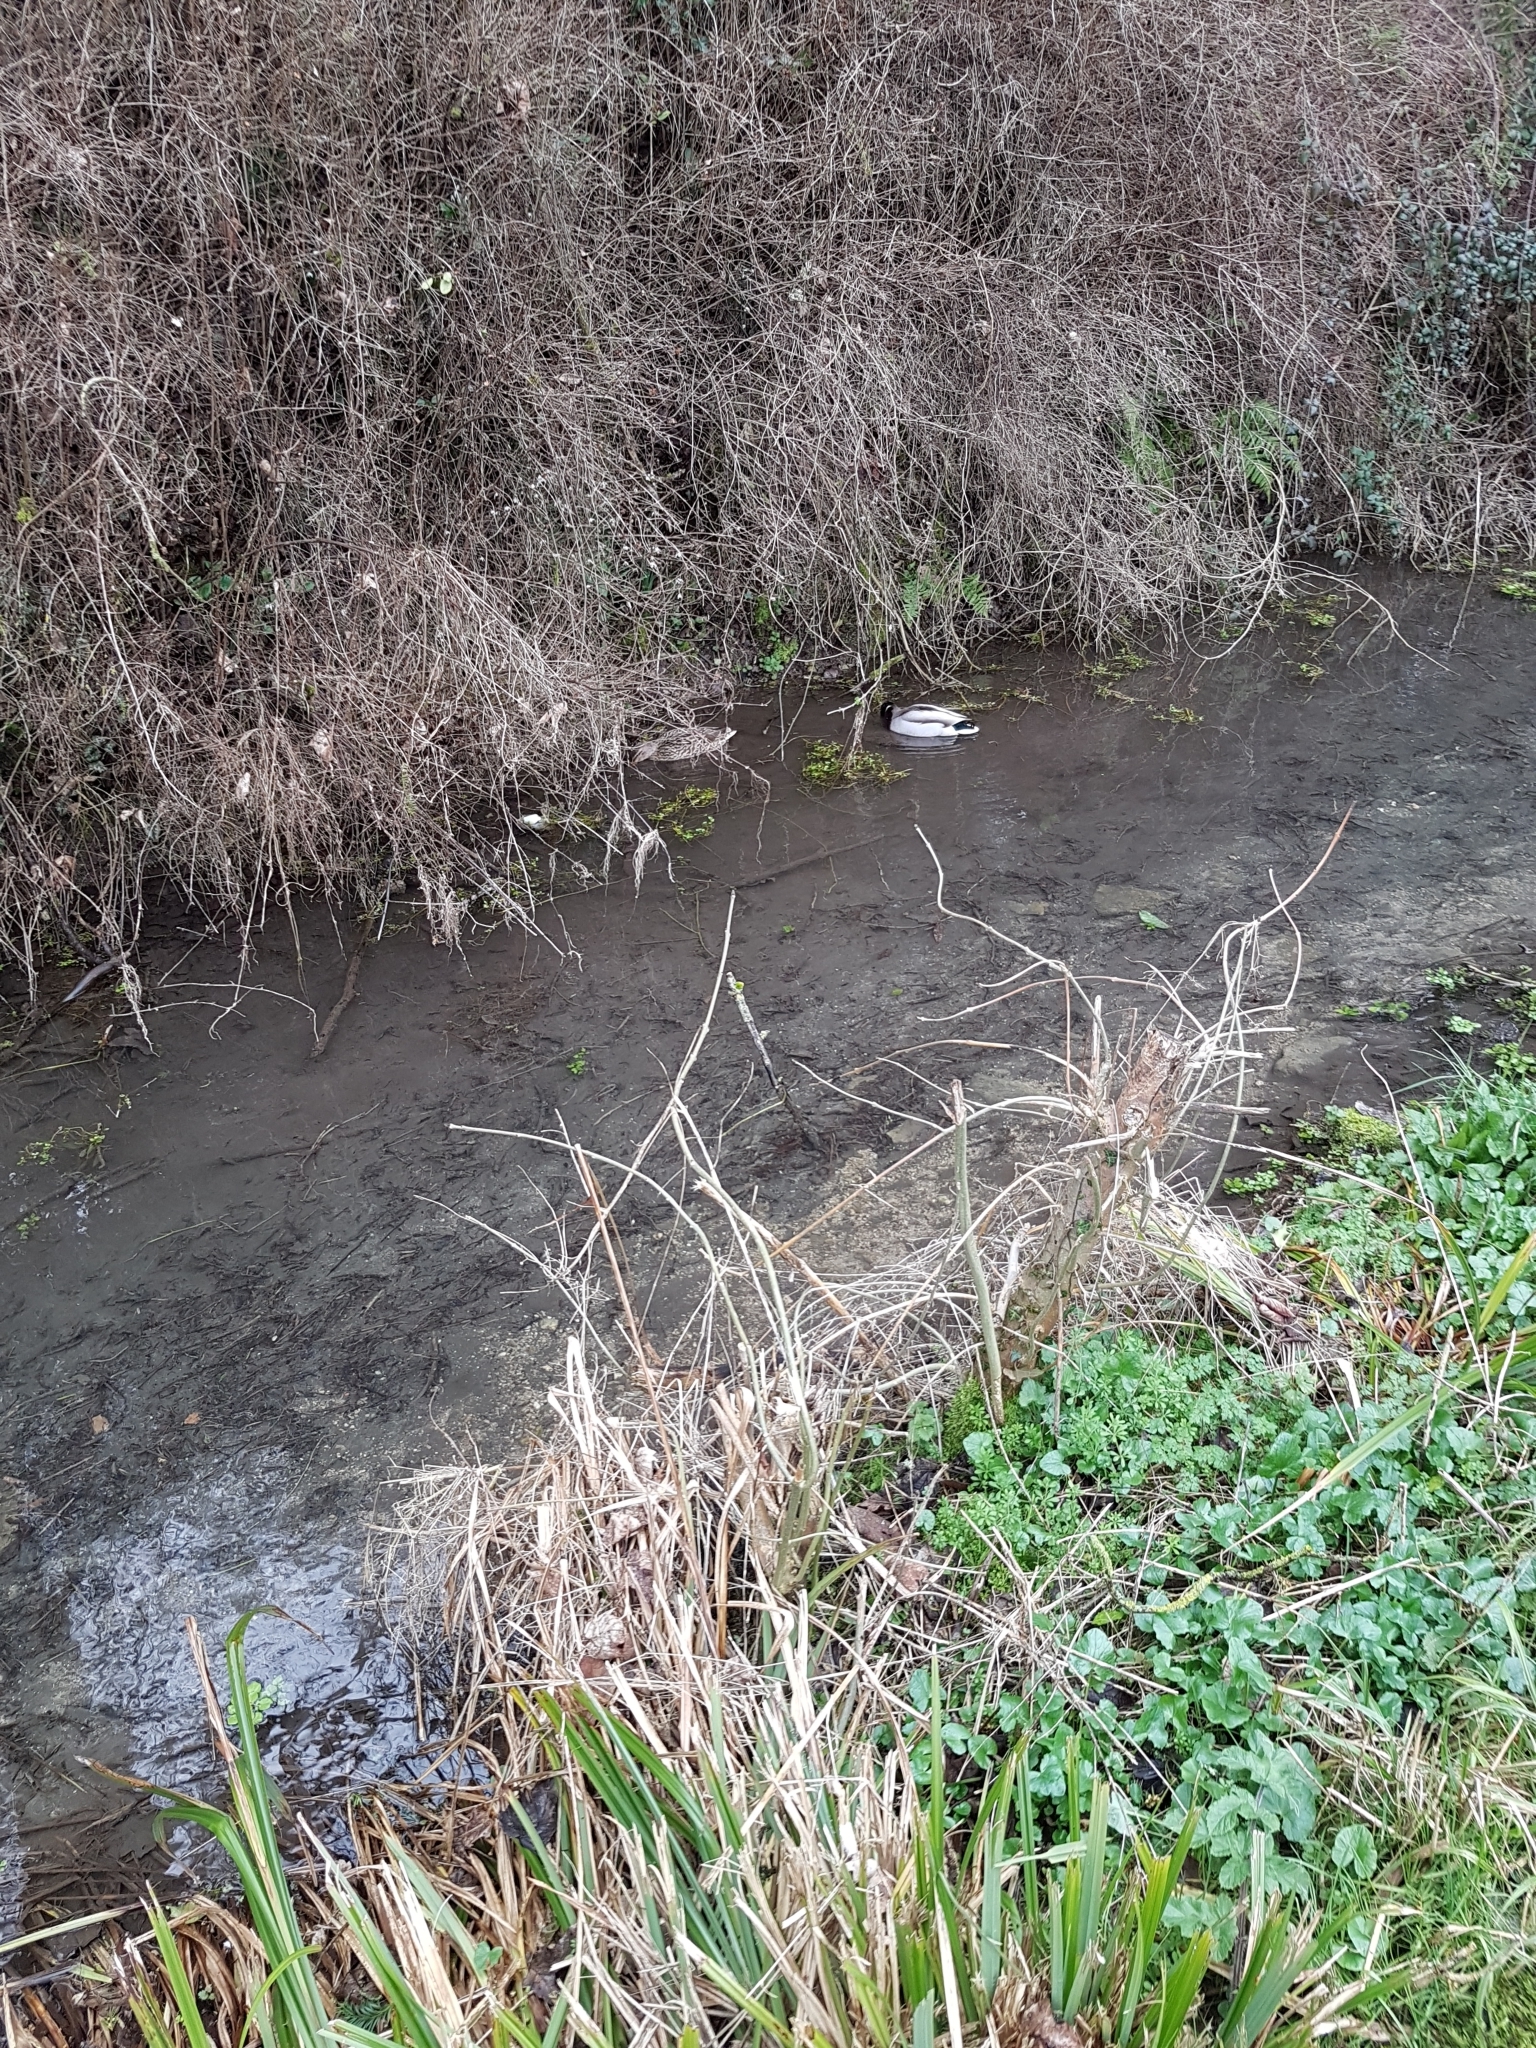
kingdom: Animalia
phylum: Chordata
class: Aves
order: Anseriformes
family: Anatidae
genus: Anas
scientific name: Anas platyrhynchos
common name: Mallard
